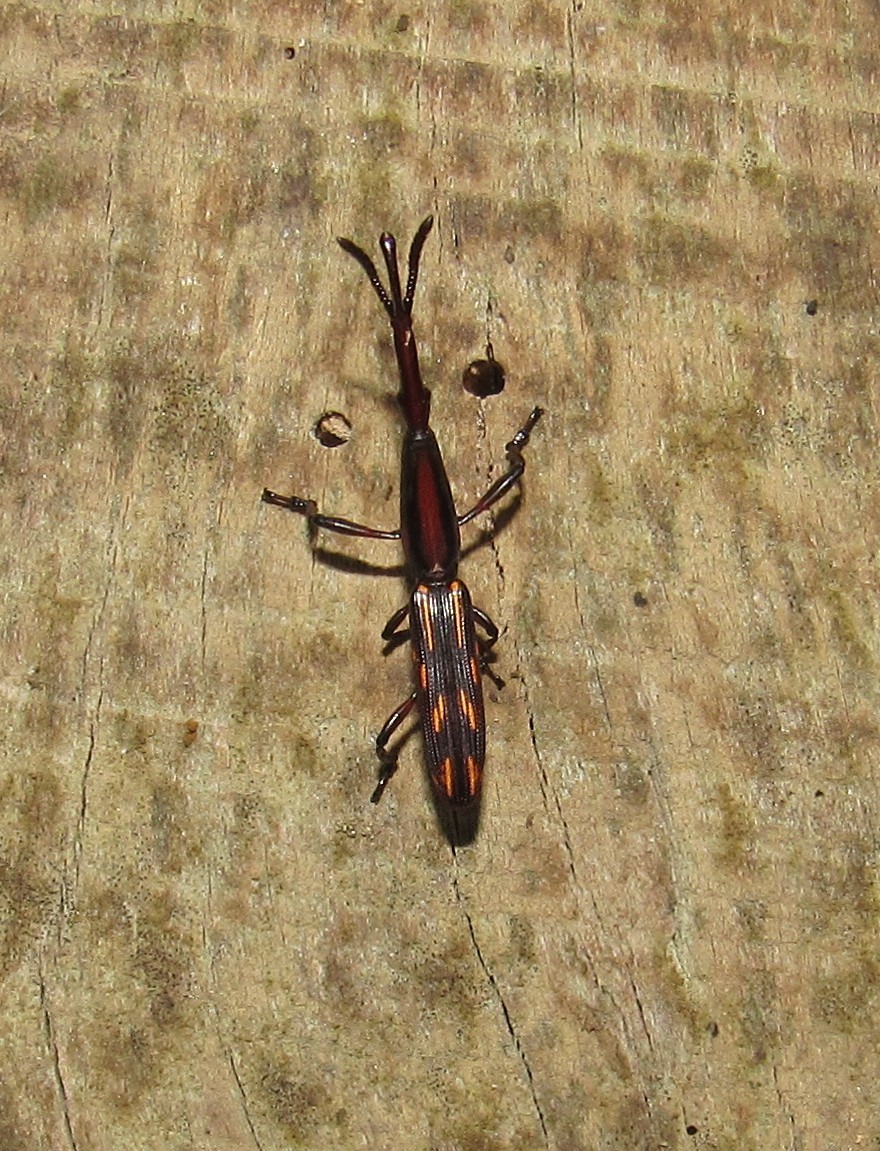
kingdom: Animalia
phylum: Arthropoda
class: Insecta
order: Coleoptera
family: Brentidae
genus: Brentus
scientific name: Brentus vulneratus
